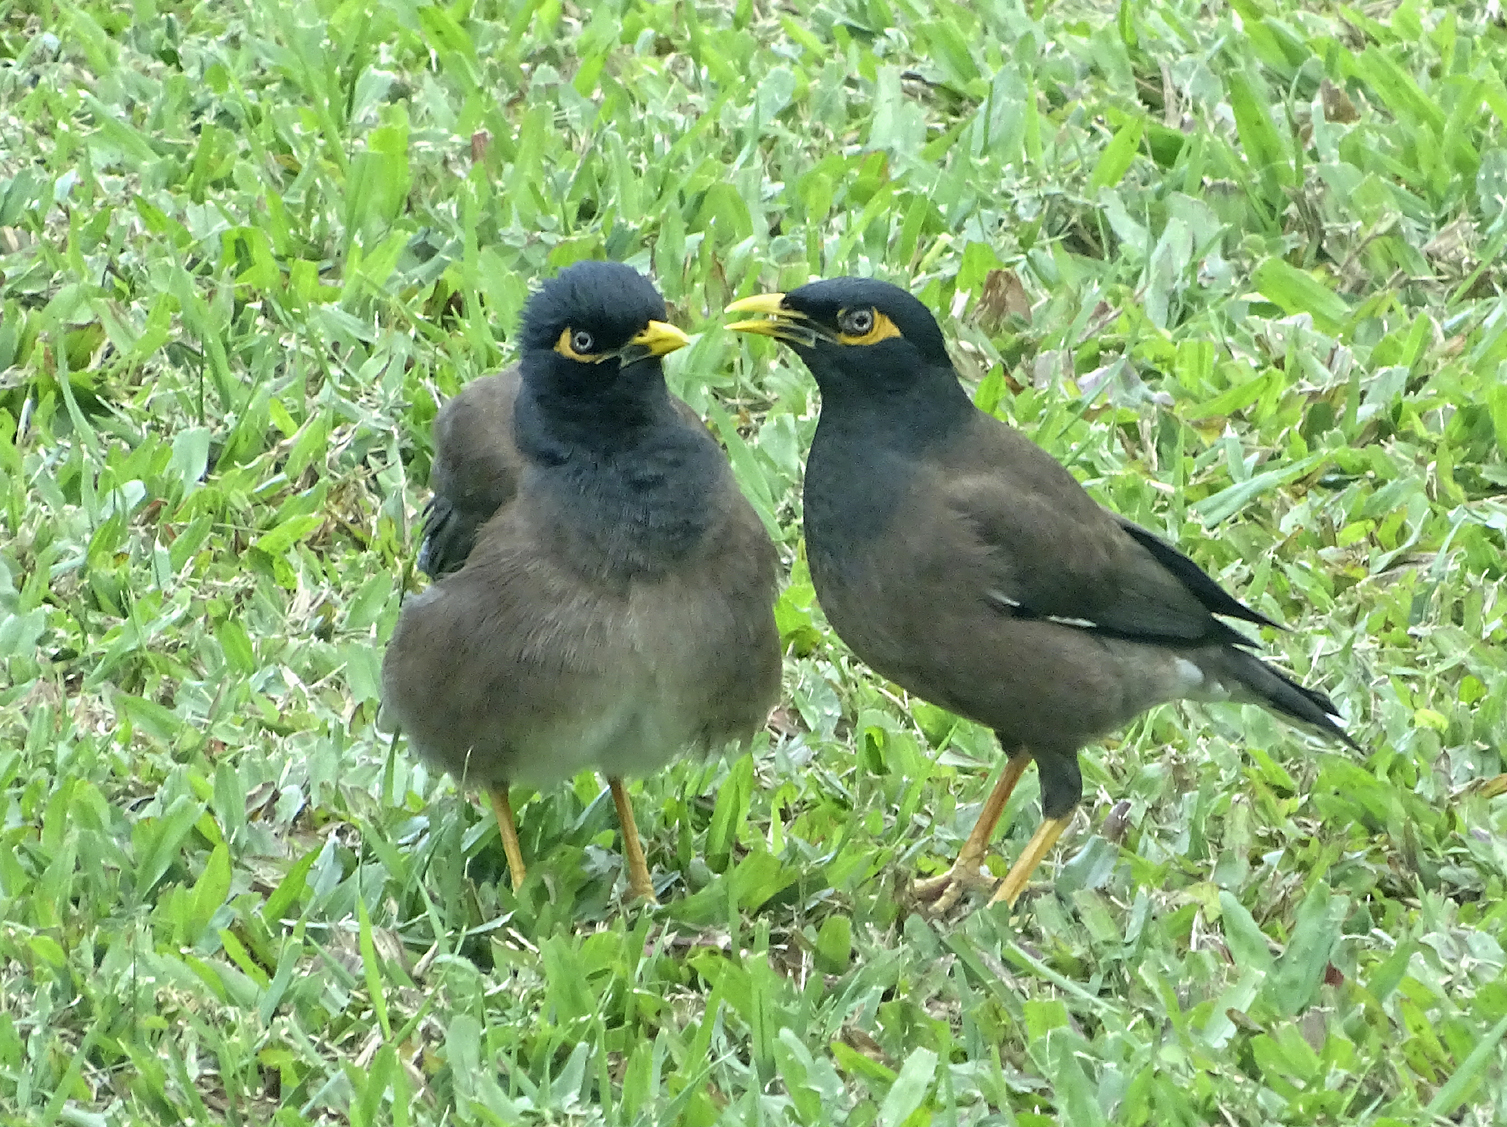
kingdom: Animalia
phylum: Chordata
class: Aves
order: Passeriformes
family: Sturnidae
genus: Acridotheres
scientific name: Acridotheres tristis
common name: Common myna
